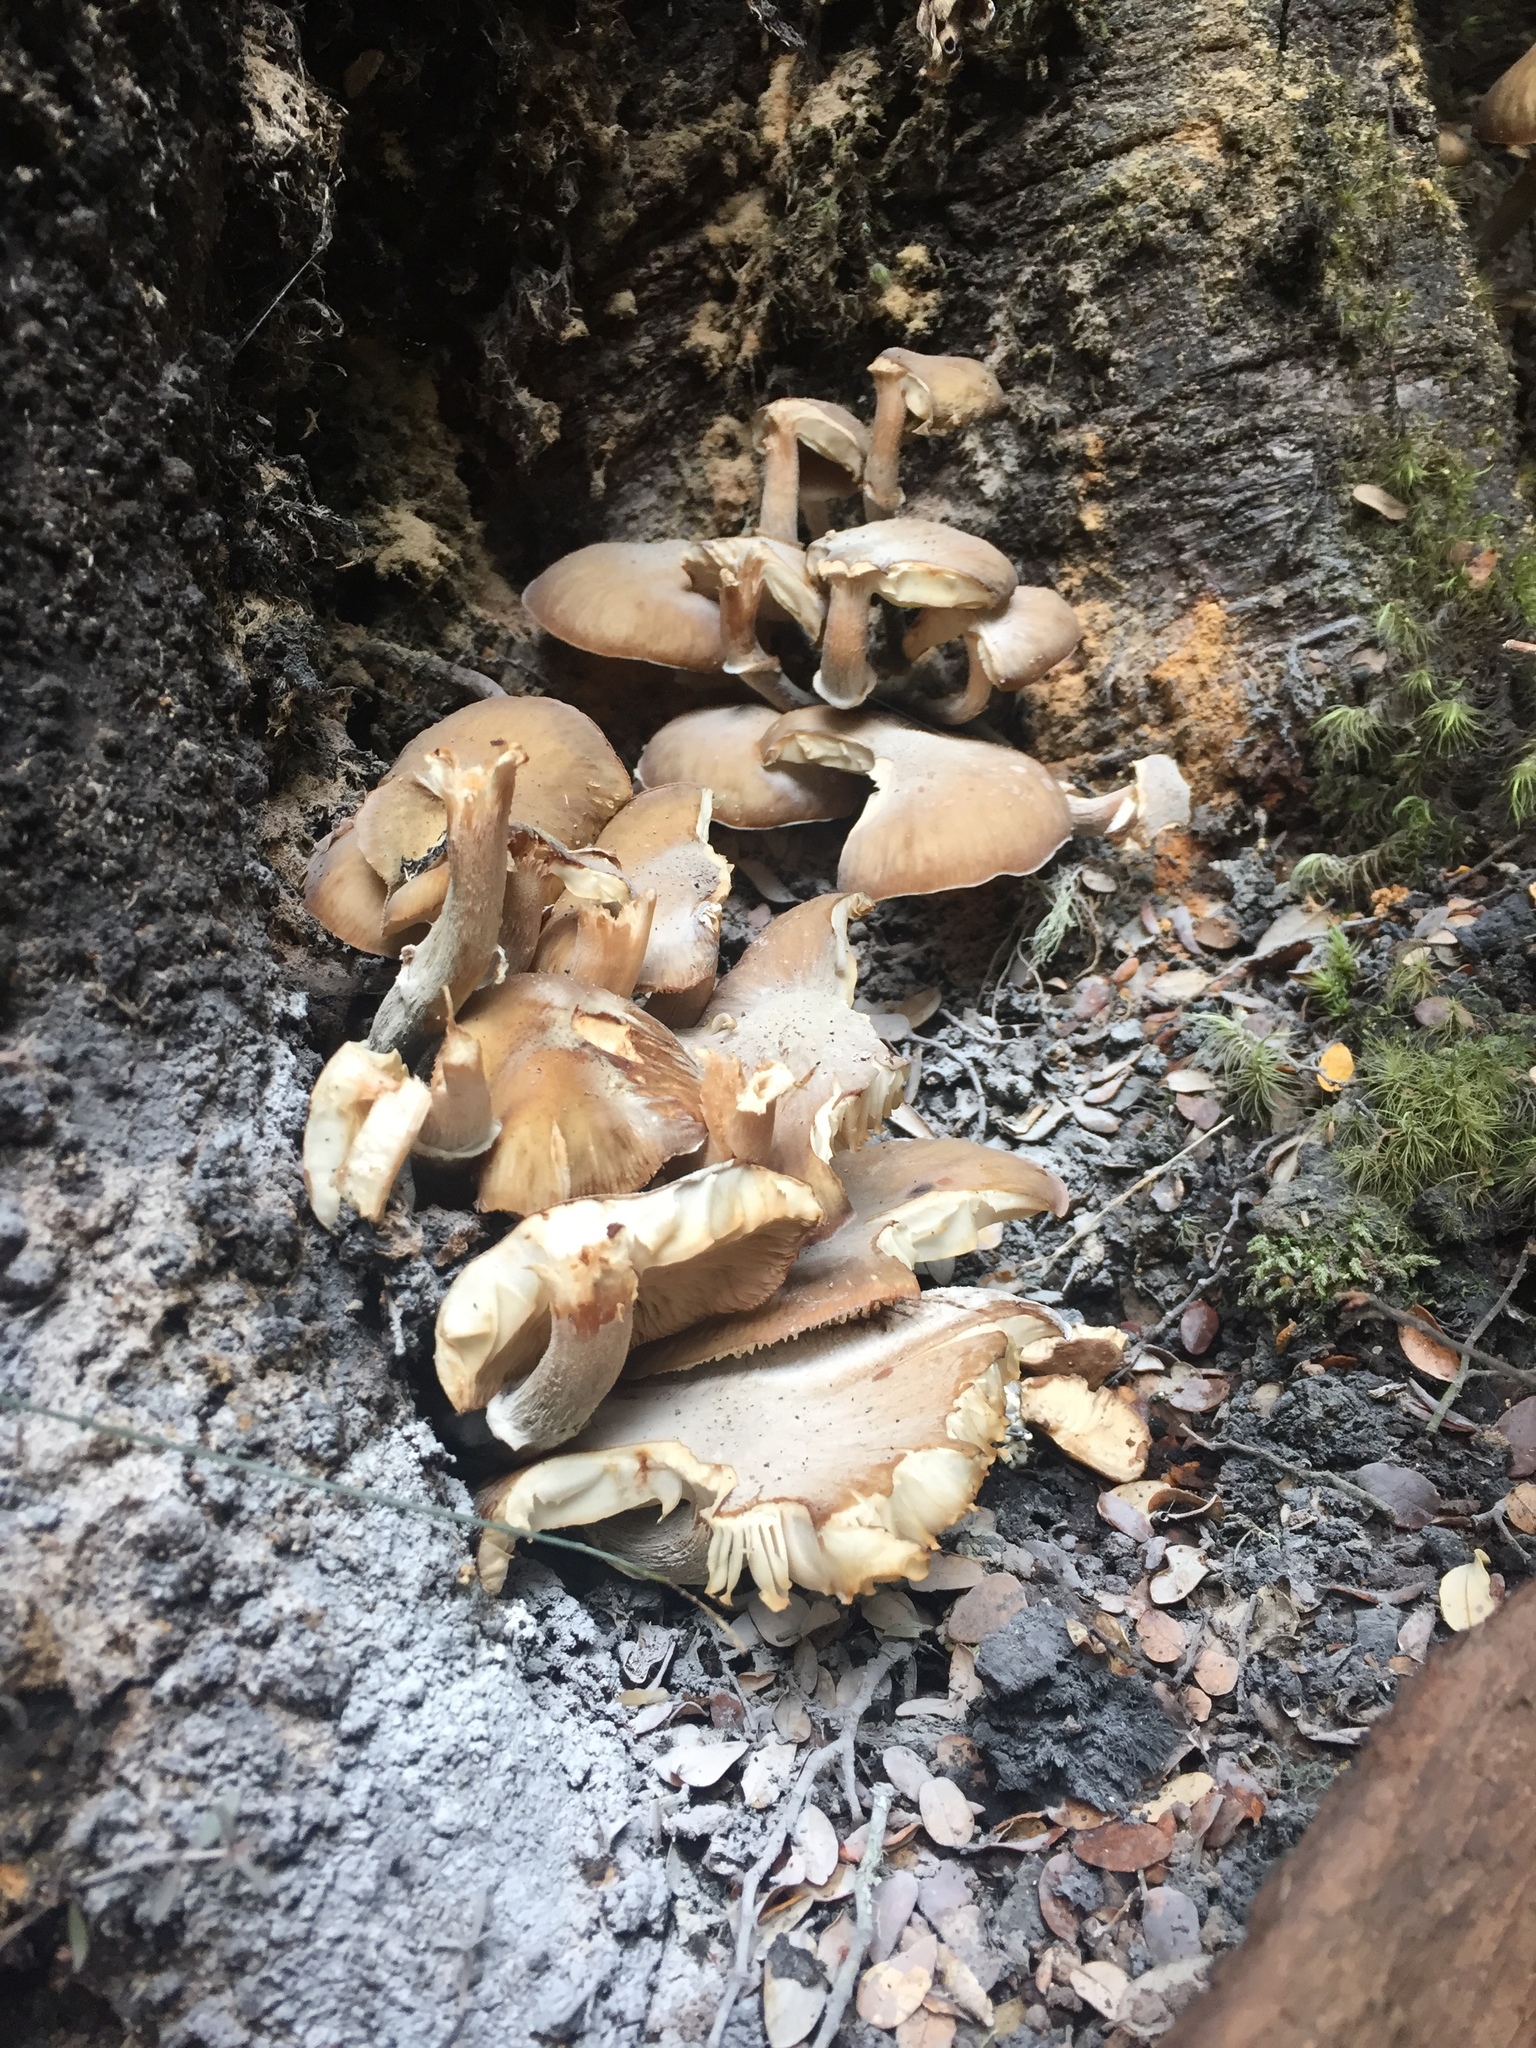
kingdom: Fungi
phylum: Basidiomycota
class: Agaricomycetes
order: Agaricales
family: Physalacriaceae
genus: Armillaria
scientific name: Armillaria novae-zelandiae
